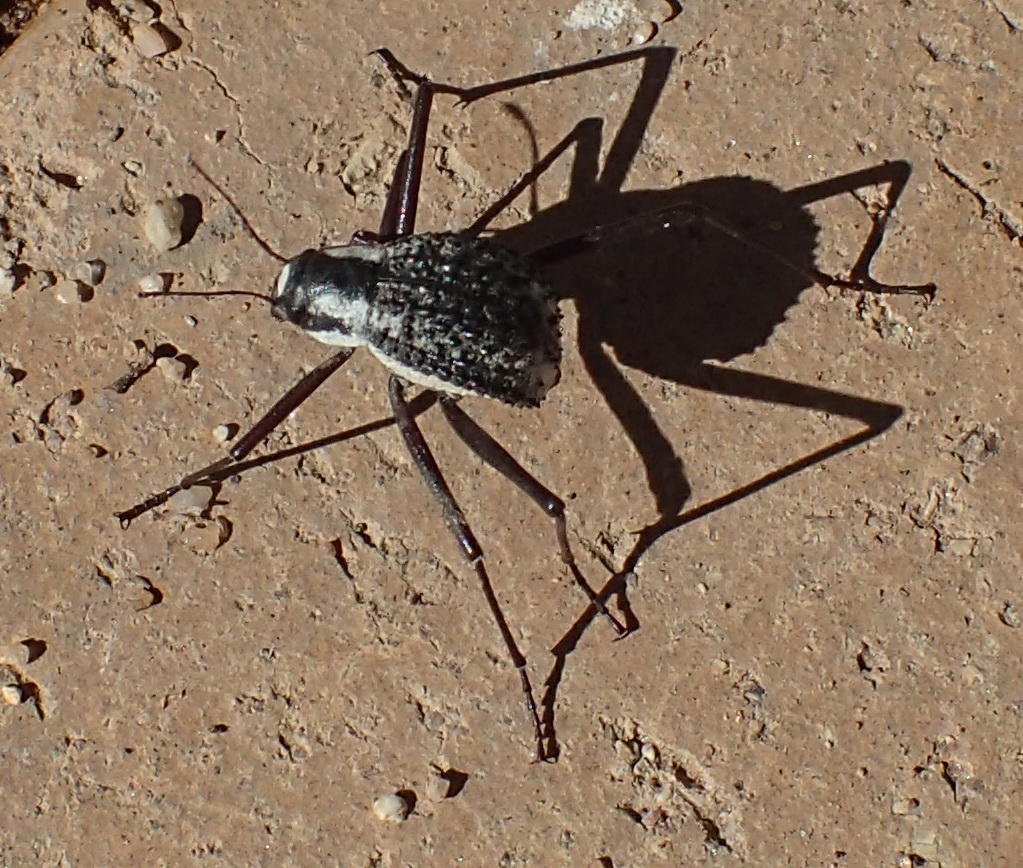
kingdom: Animalia
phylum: Arthropoda
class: Insecta
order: Coleoptera
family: Tenebrionidae
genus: Stenocara
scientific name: Stenocara
